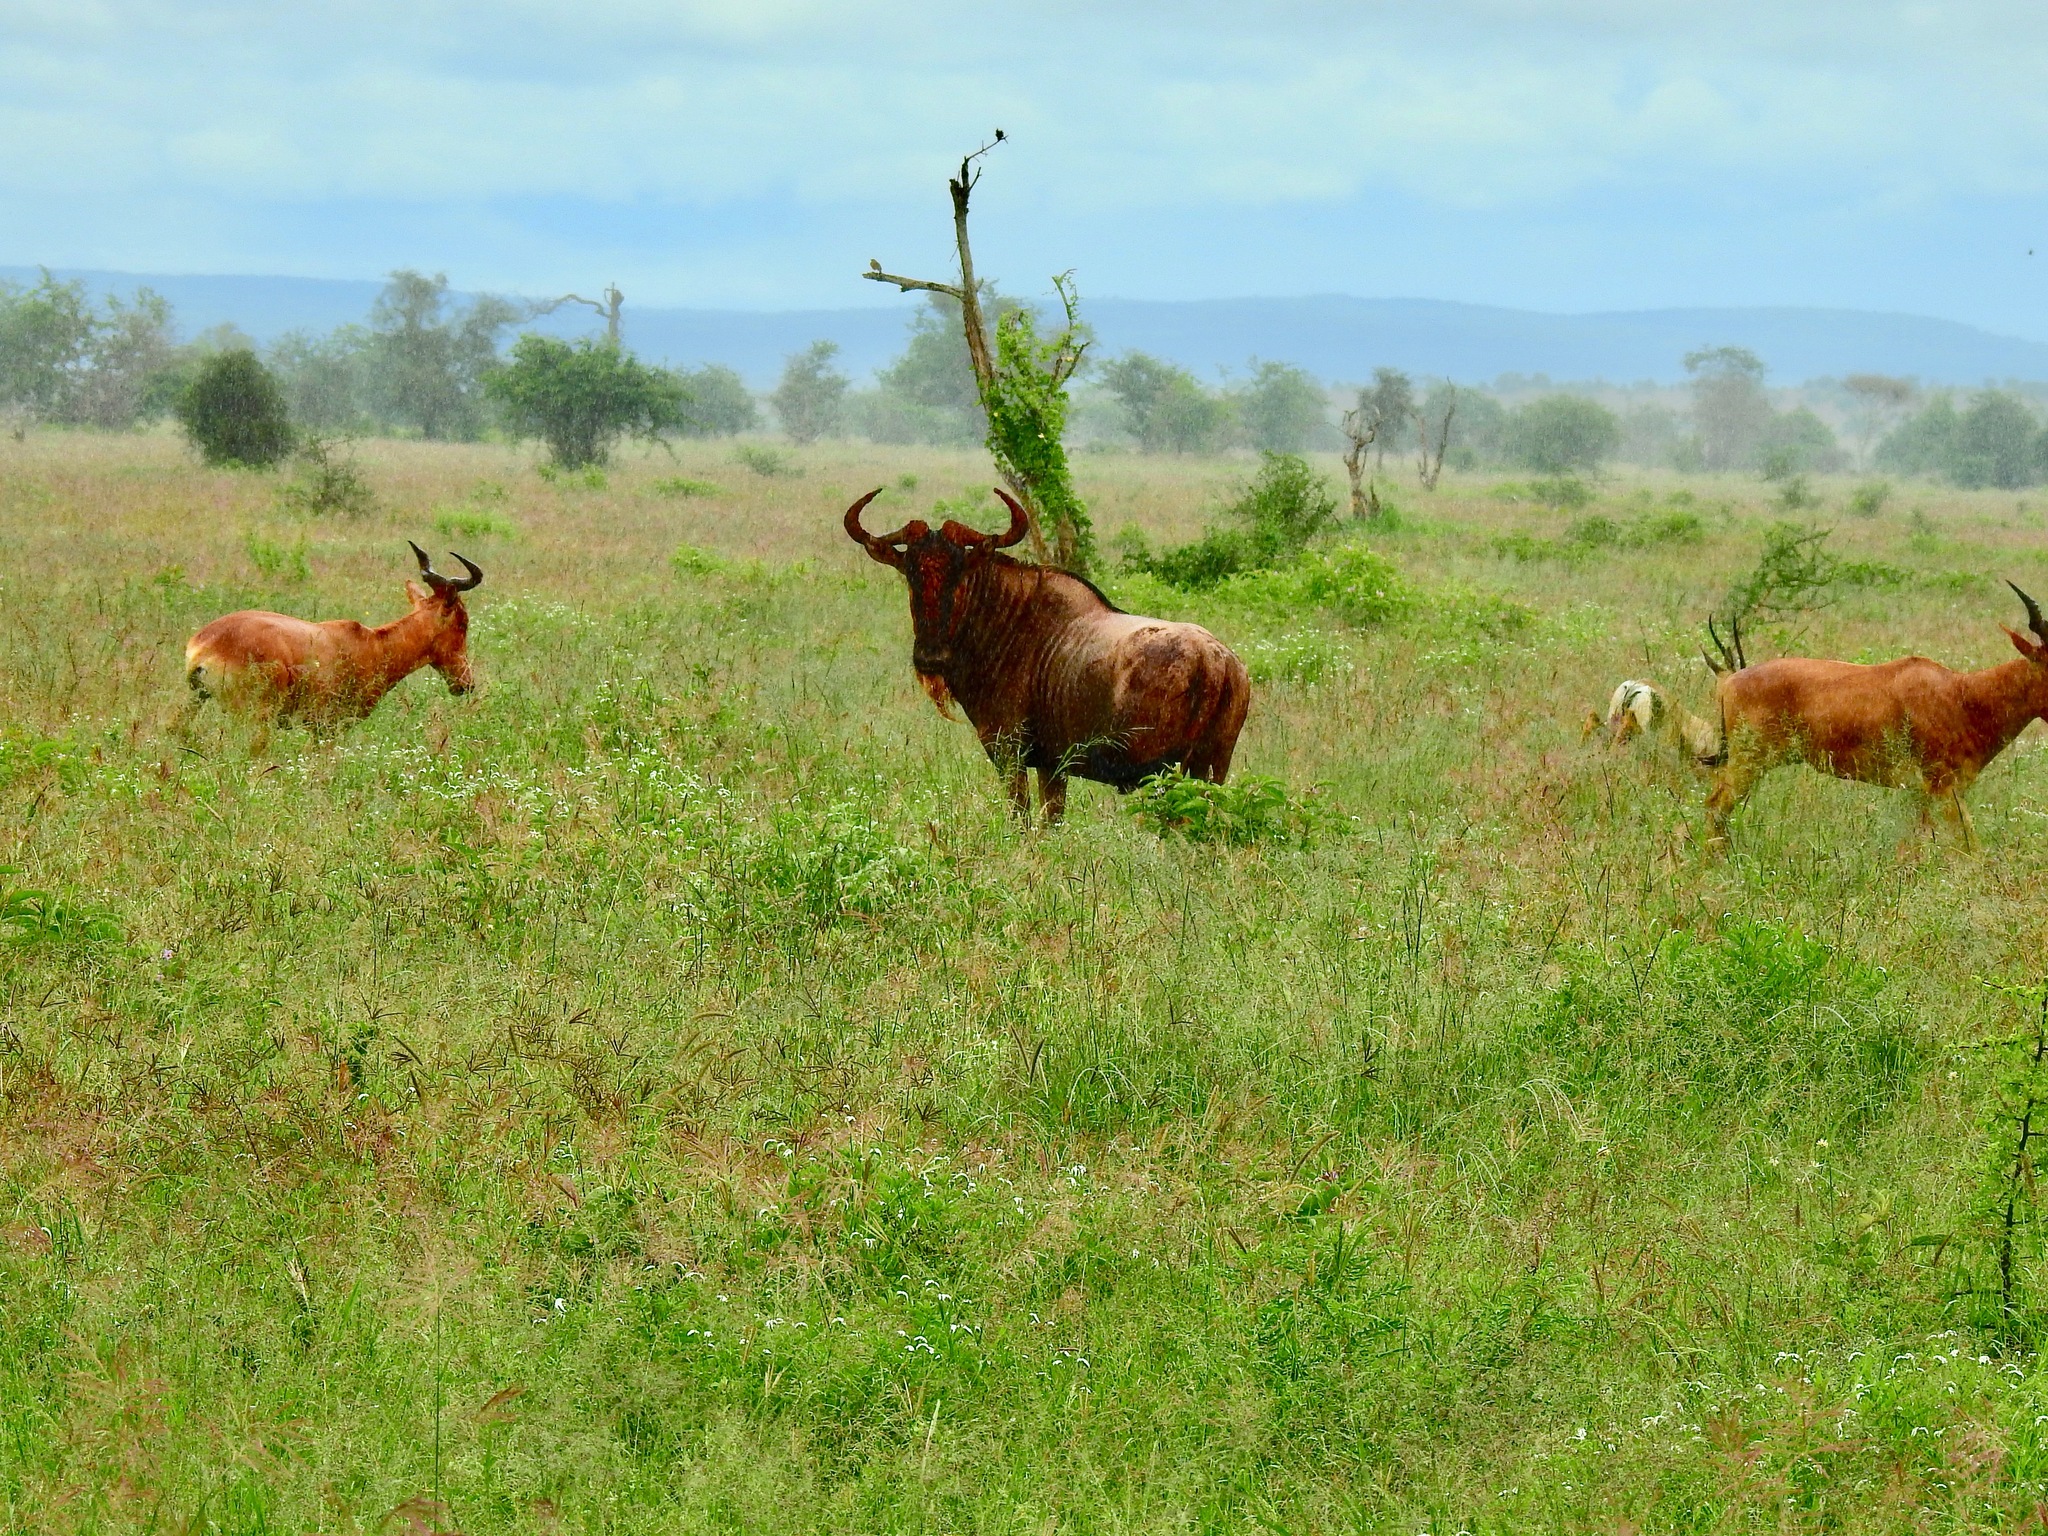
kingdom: Animalia
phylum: Chordata
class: Mammalia
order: Artiodactyla
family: Bovidae
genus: Connochaetes
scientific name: Connochaetes taurinus
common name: Blue wildebeest
